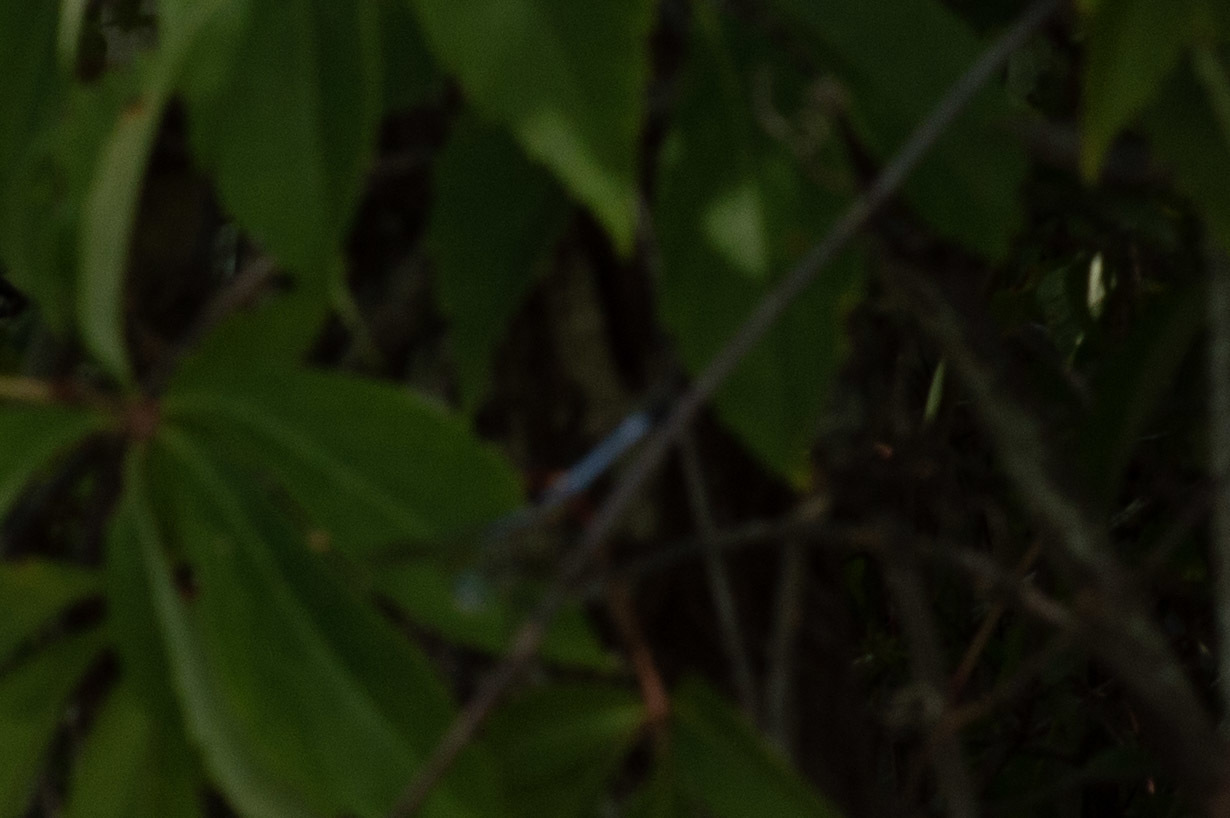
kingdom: Animalia
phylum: Arthropoda
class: Insecta
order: Odonata
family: Libellulidae
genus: Pachydiplax
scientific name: Pachydiplax longipennis
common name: Blue dasher
